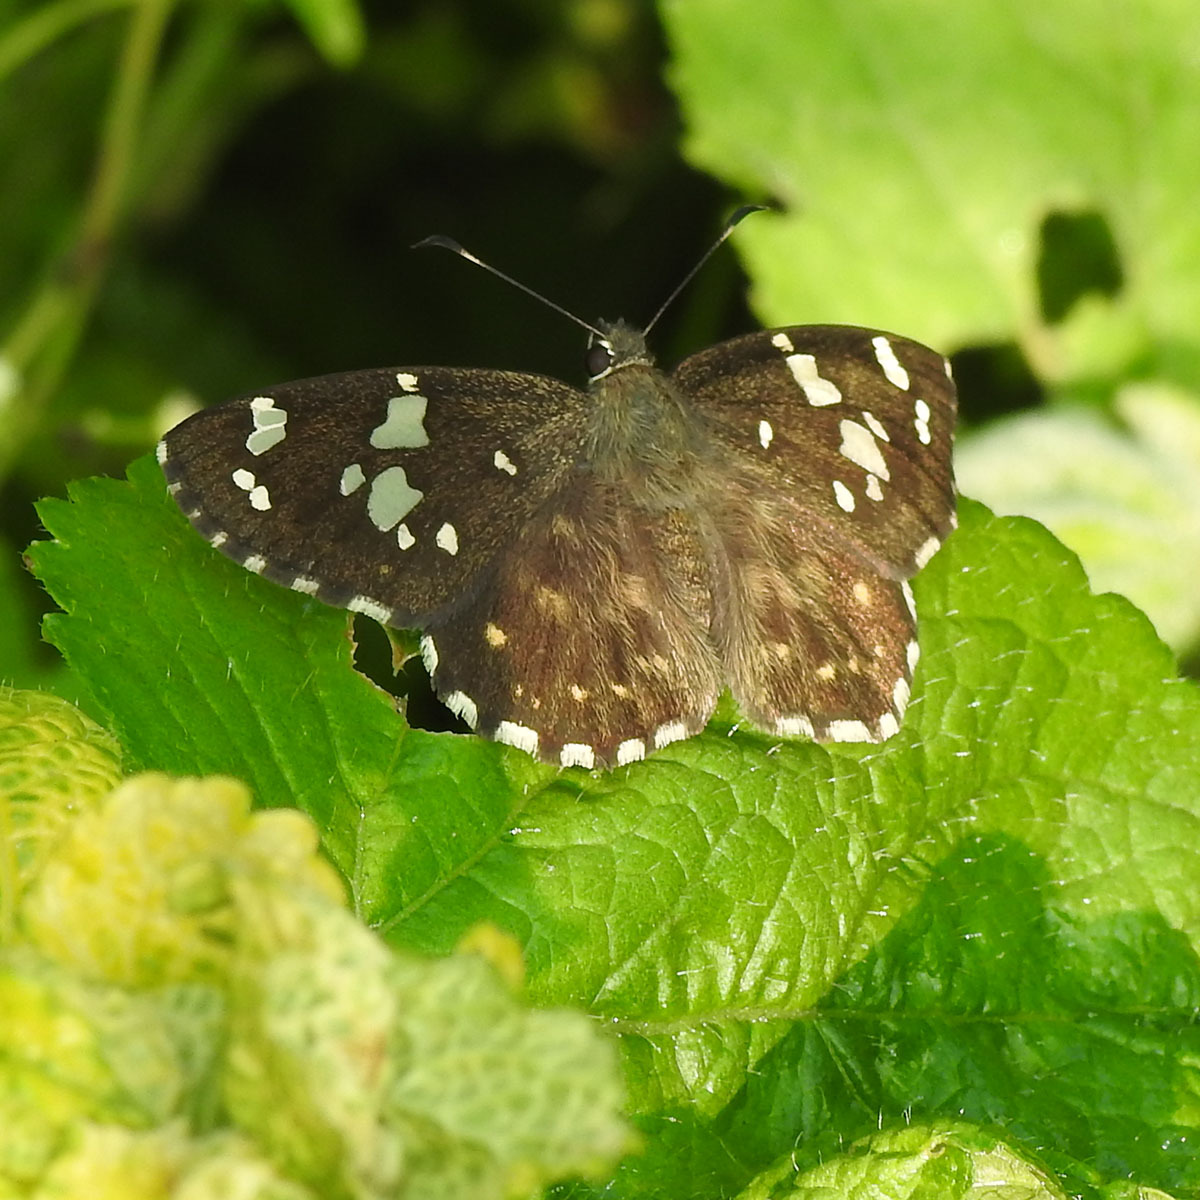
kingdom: Animalia
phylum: Arthropoda
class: Insecta
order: Lepidoptera
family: Hesperiidae
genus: Celaenorrhinus
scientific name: Celaenorrhinus ambareesa
